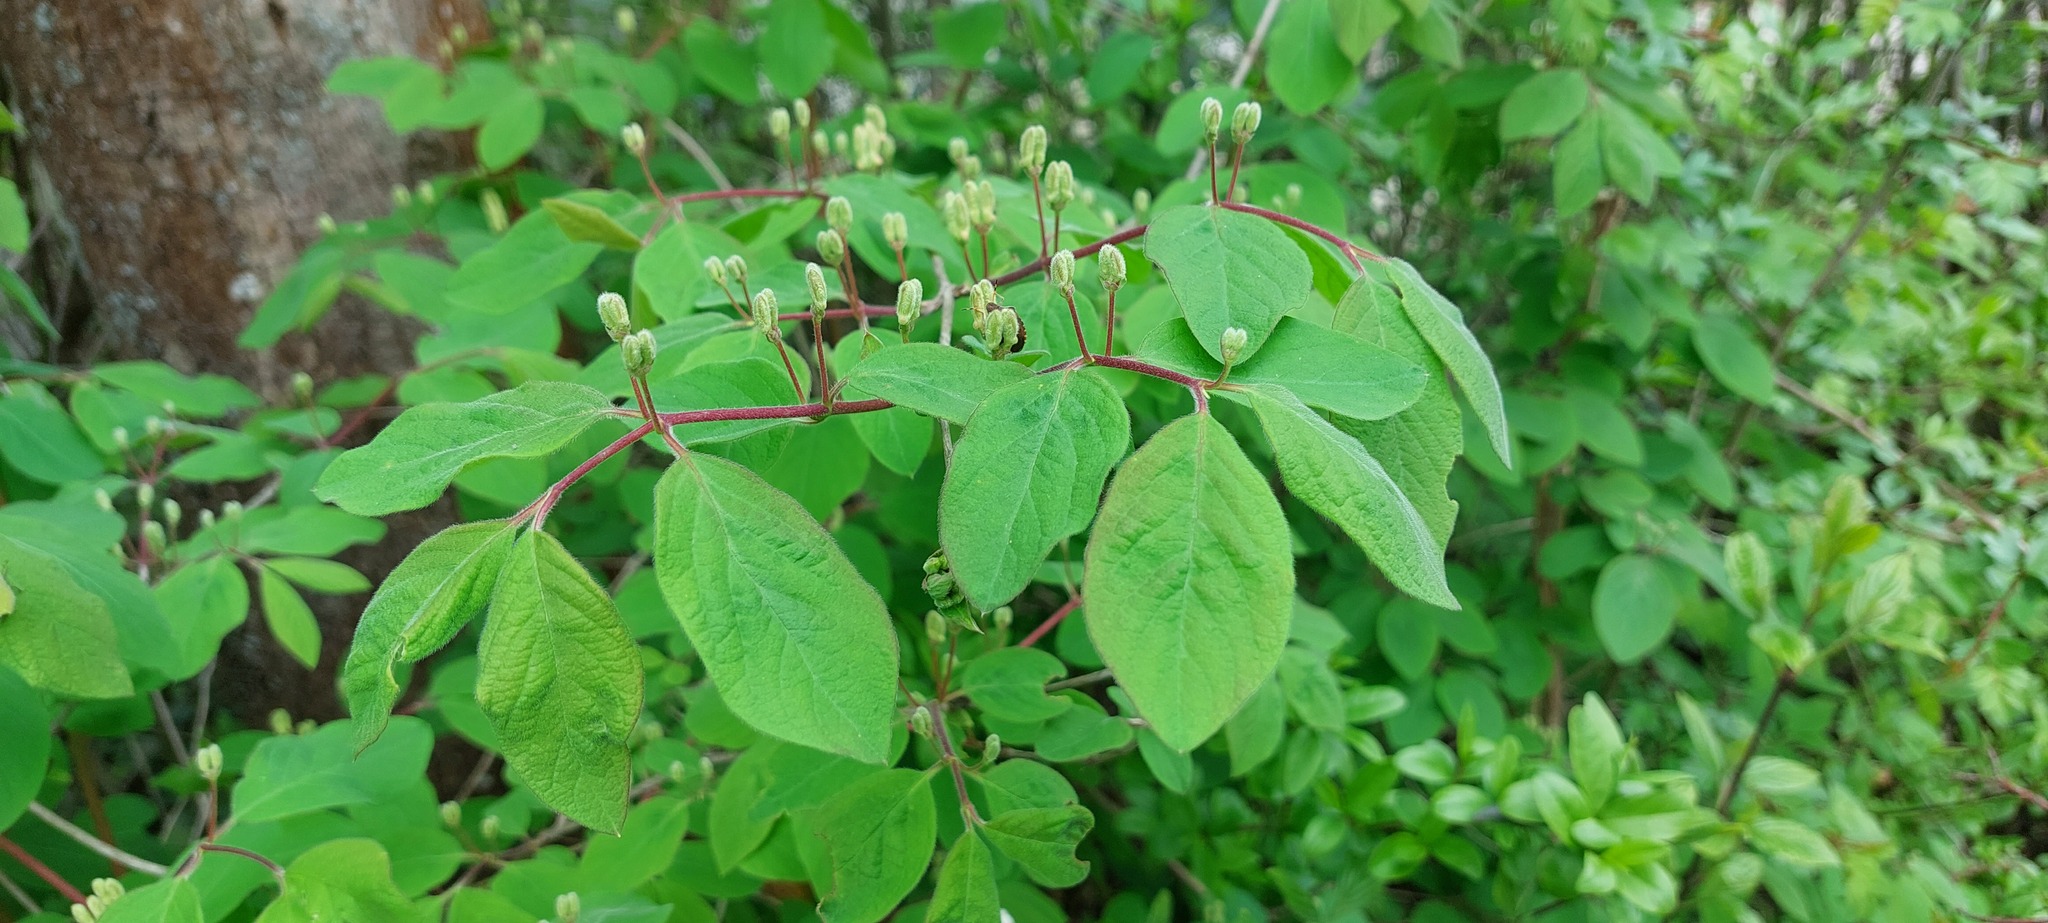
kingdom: Plantae
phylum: Tracheophyta
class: Magnoliopsida
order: Dipsacales
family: Caprifoliaceae
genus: Lonicera
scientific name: Lonicera xylosteum
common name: Fly honeysuckle
